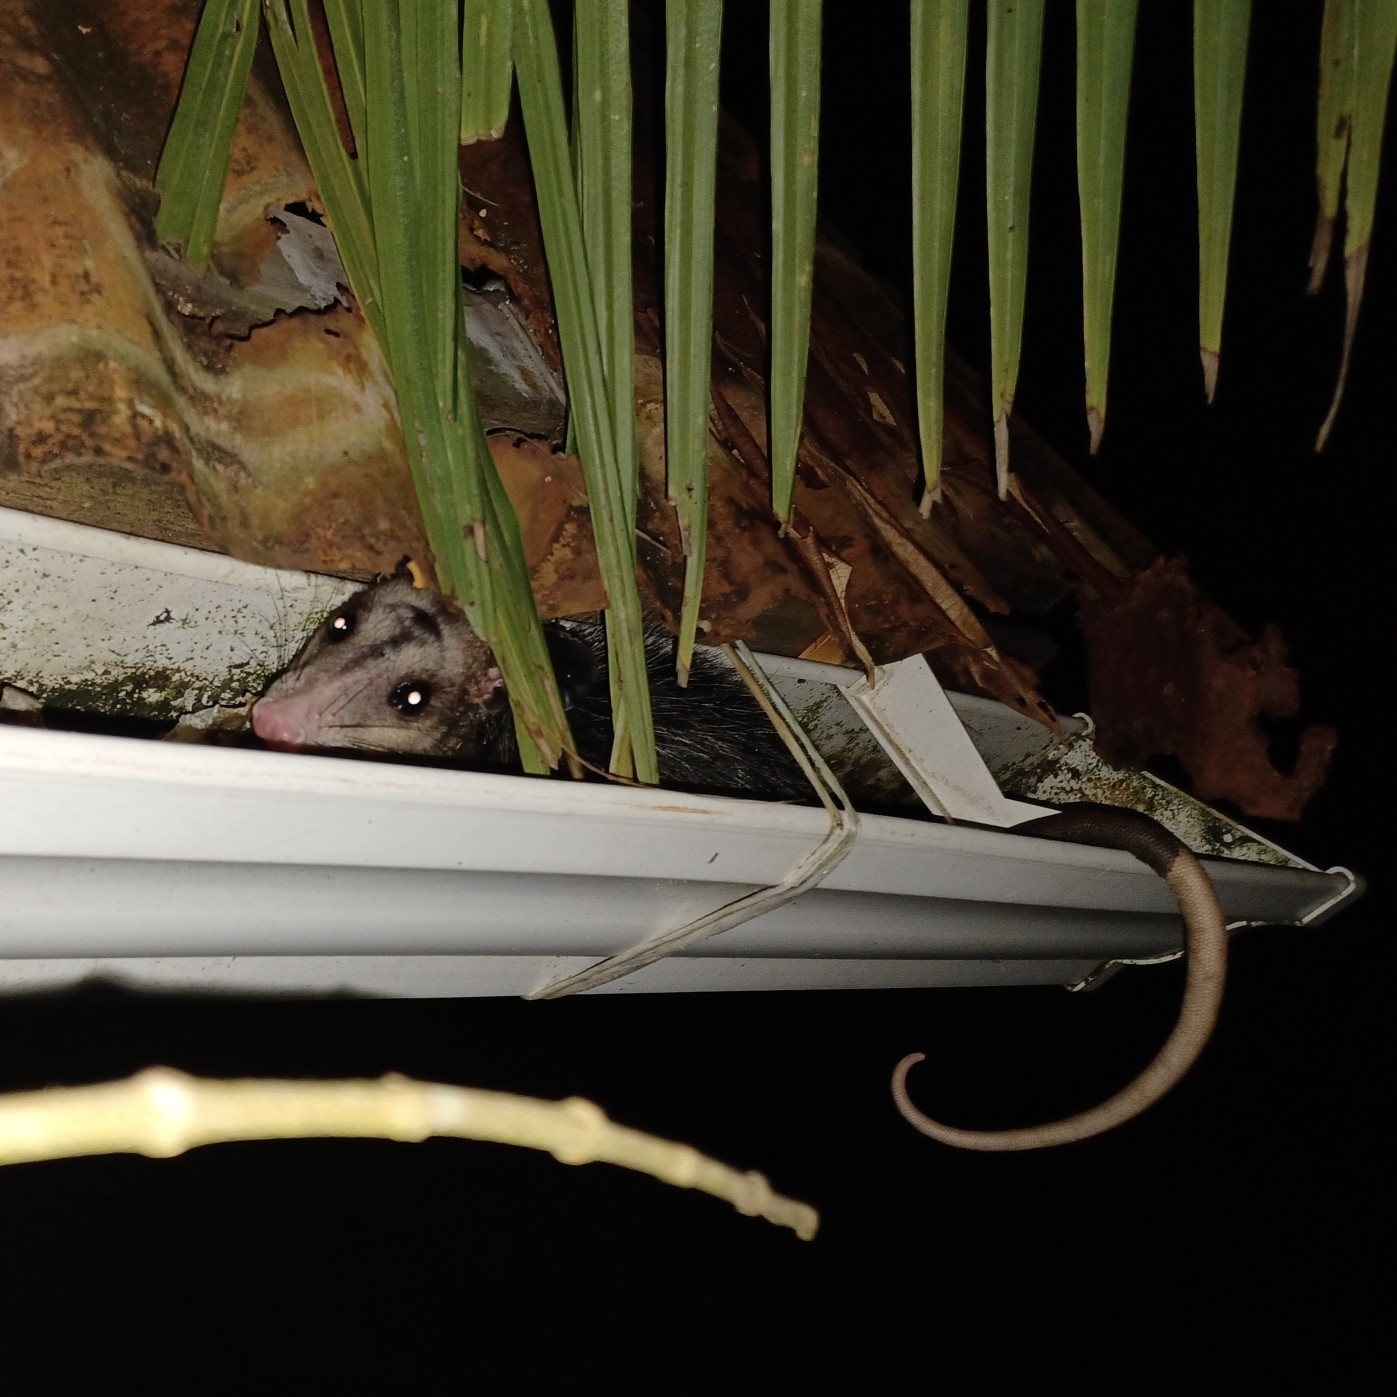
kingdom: Animalia
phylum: Chordata
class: Mammalia
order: Didelphimorphia
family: Didelphidae
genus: Didelphis
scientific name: Didelphis marsupialis
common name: Common opossum
